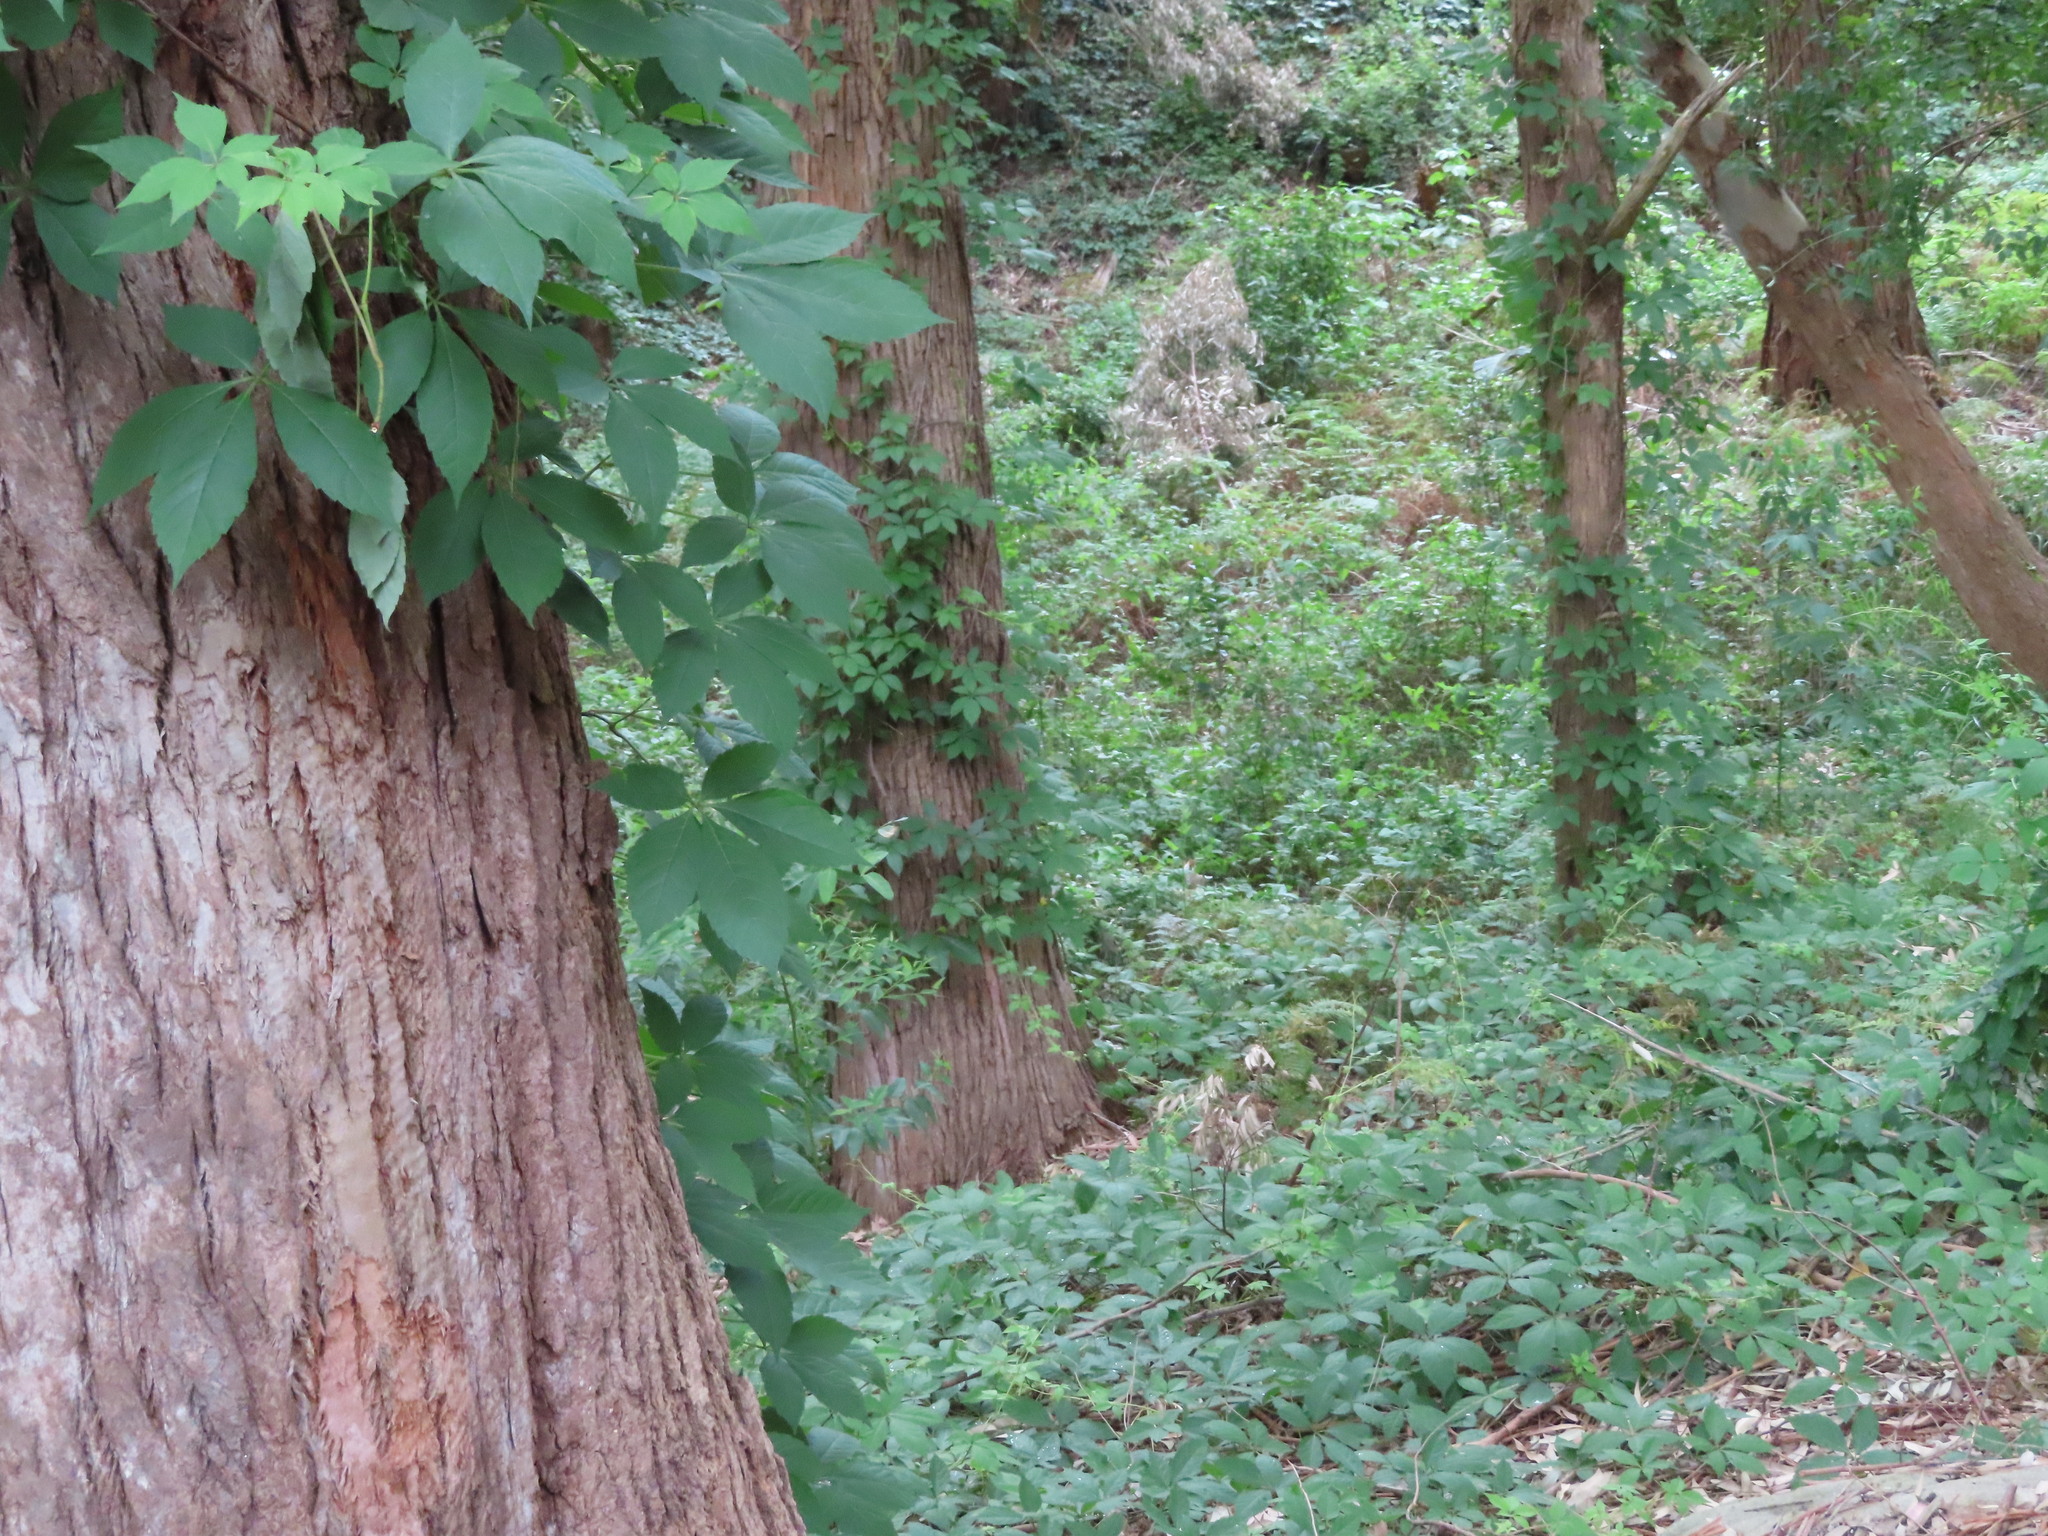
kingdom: Plantae
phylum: Tracheophyta
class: Magnoliopsida
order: Vitales
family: Vitaceae
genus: Parthenocissus
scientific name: Parthenocissus quinquefolia
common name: Virginia-creeper
